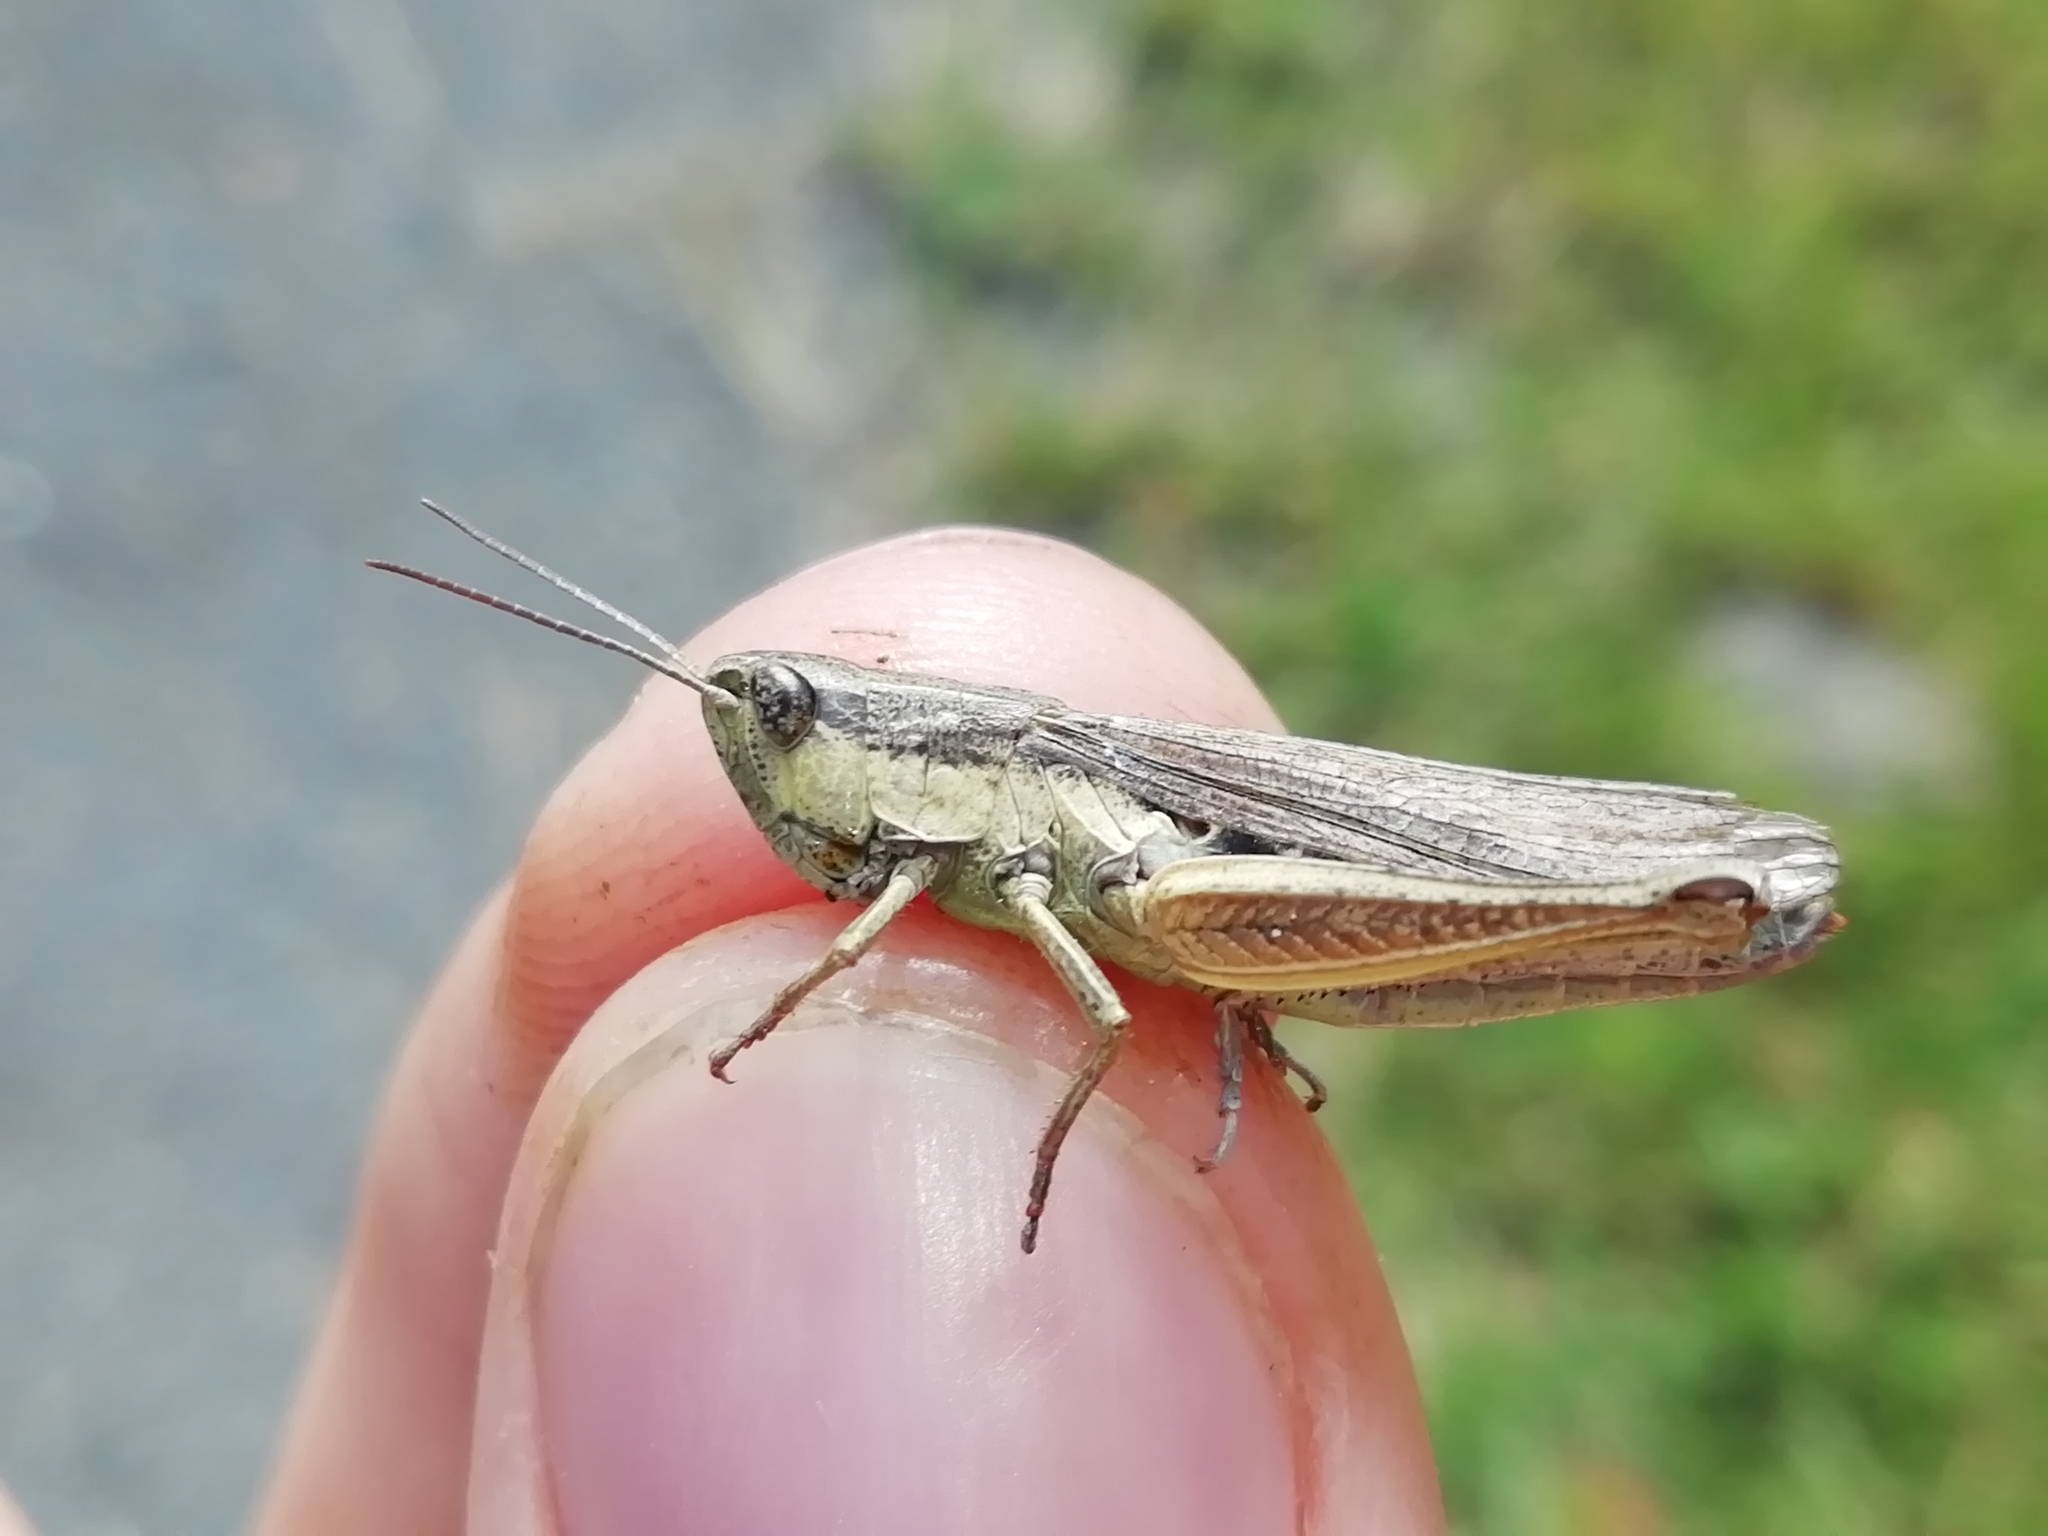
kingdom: Animalia
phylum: Arthropoda
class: Insecta
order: Orthoptera
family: Acrididae
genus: Chorthippus
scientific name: Chorthippus karelini
